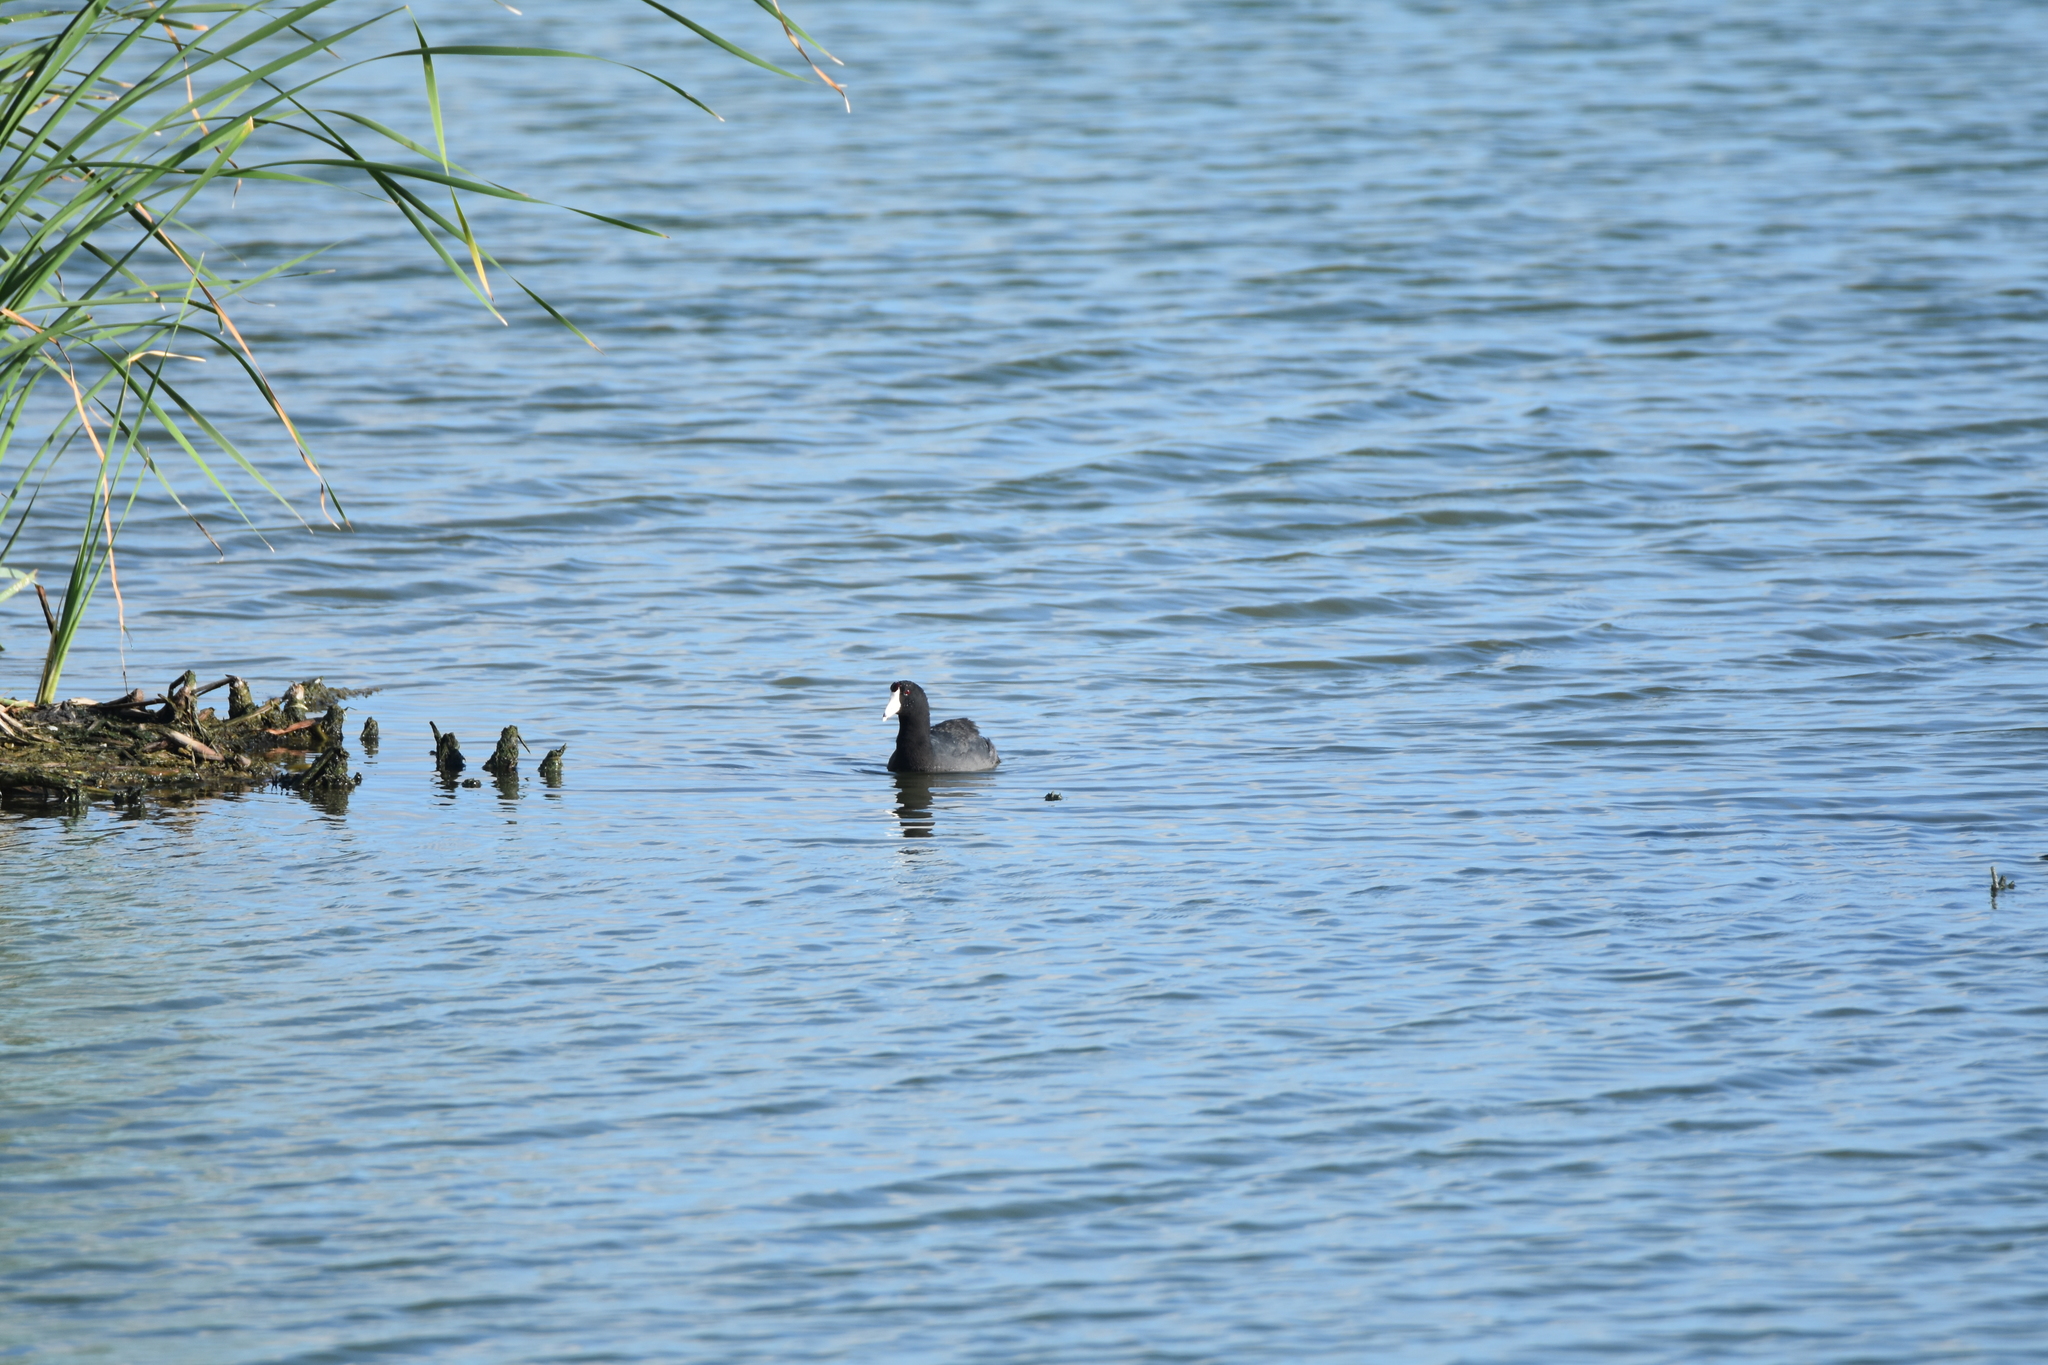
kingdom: Animalia
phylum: Chordata
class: Aves
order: Gruiformes
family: Rallidae
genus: Fulica
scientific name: Fulica americana
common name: American coot
